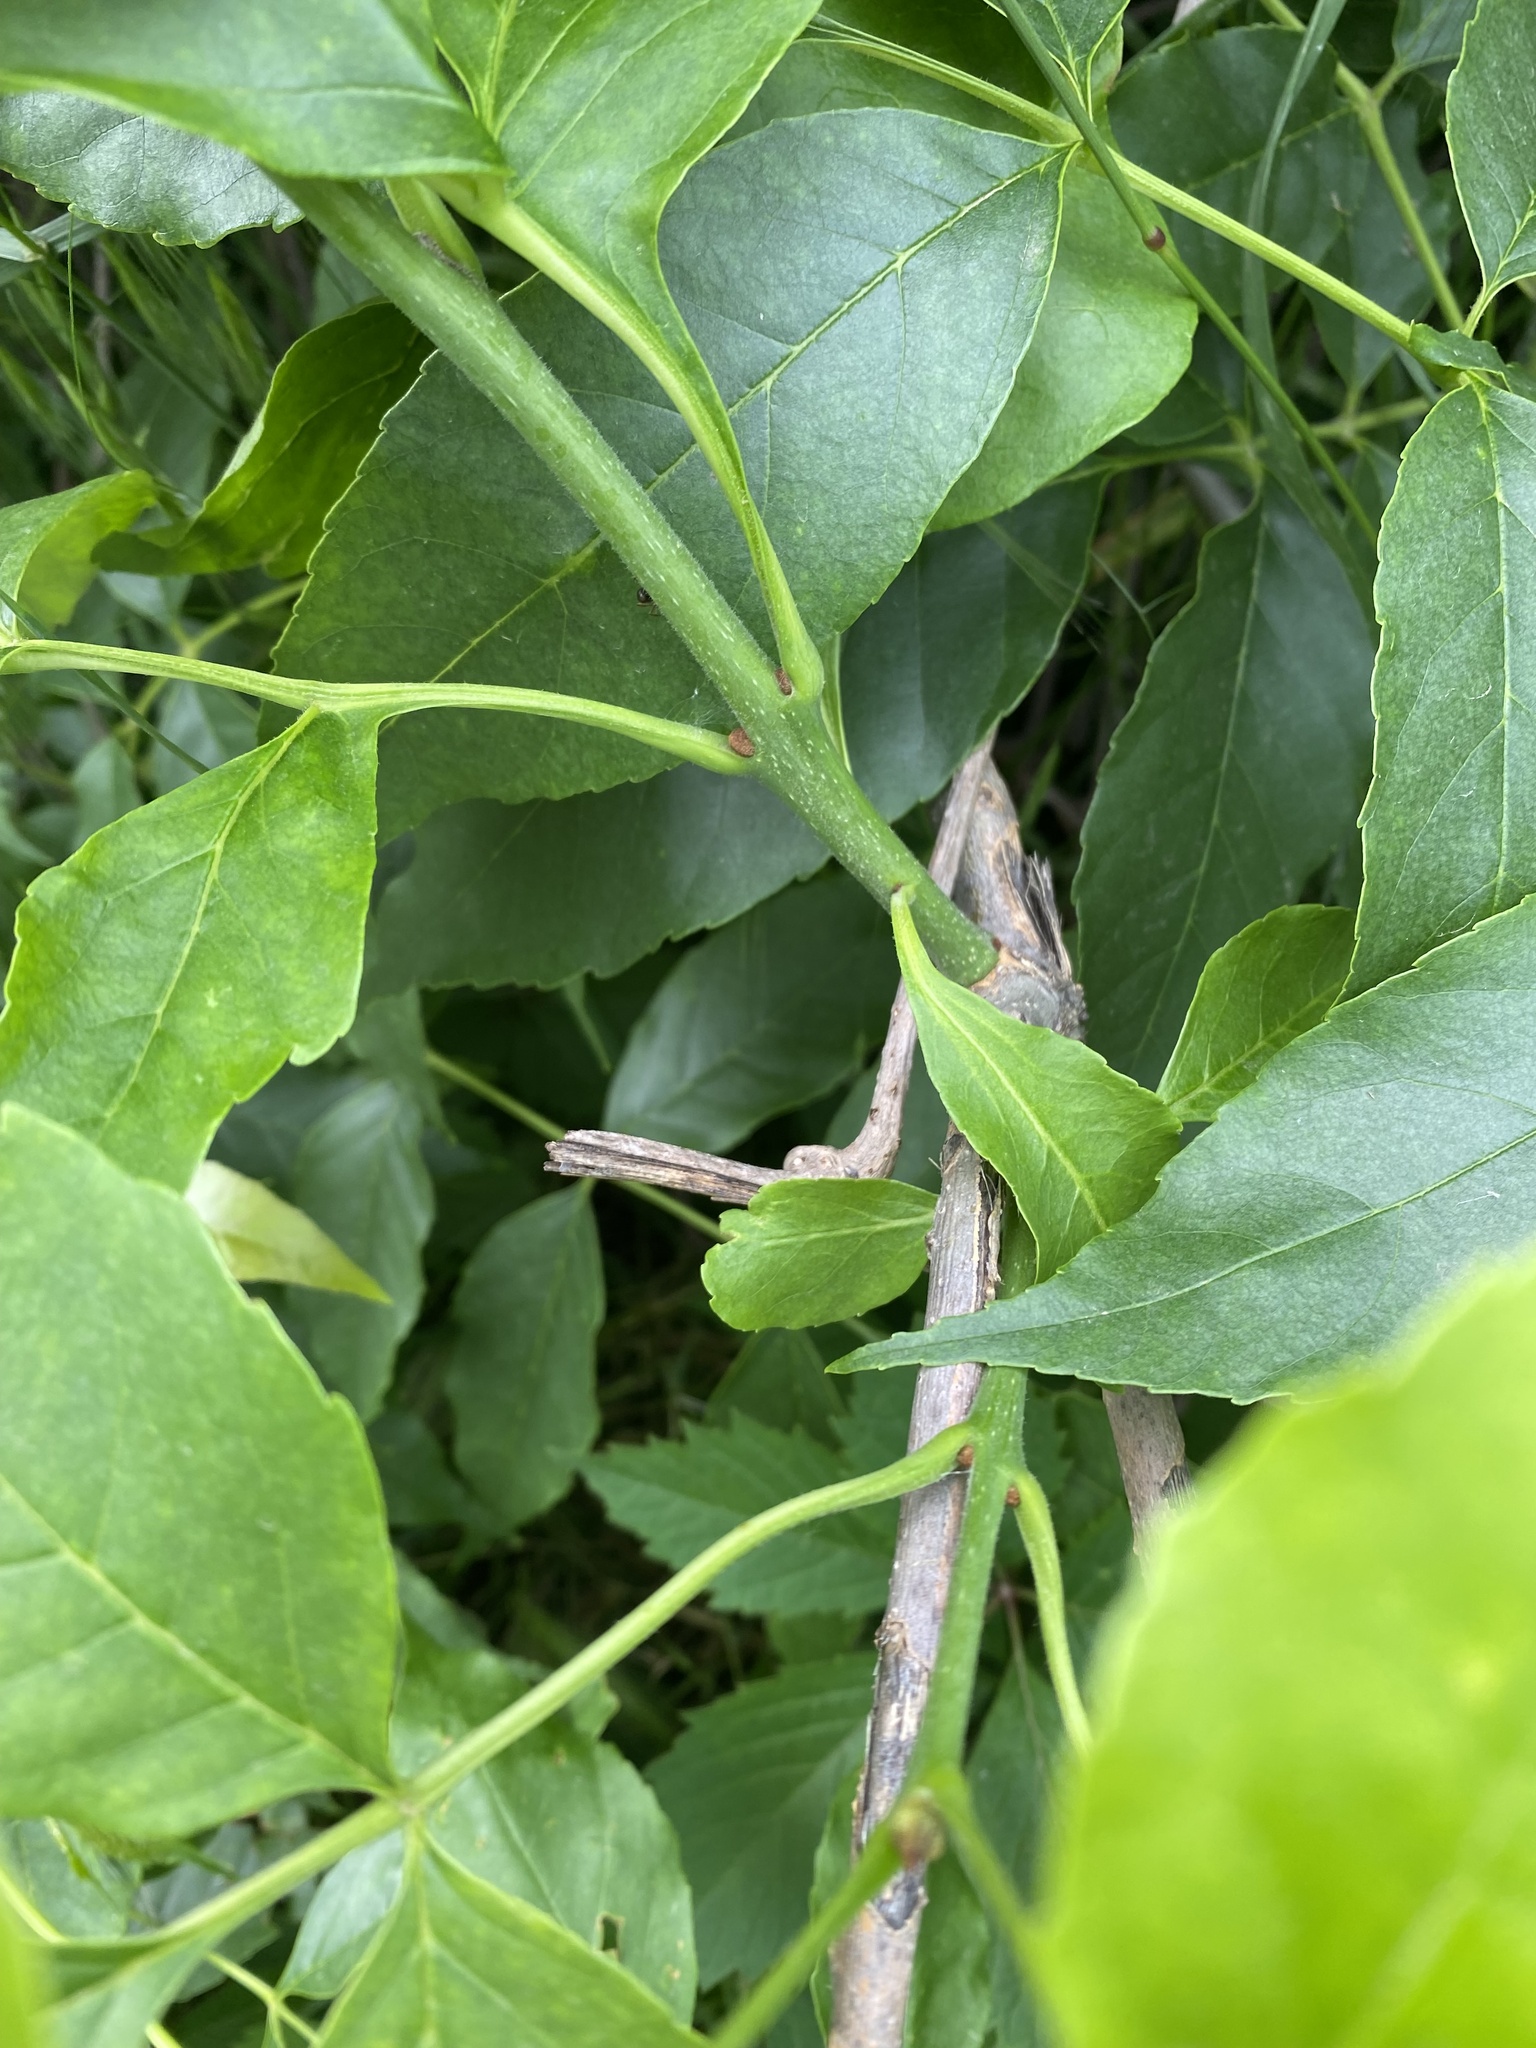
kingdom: Plantae
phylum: Tracheophyta
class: Magnoliopsida
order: Lamiales
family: Oleaceae
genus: Fraxinus
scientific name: Fraxinus pennsylvanica
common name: Green ash
